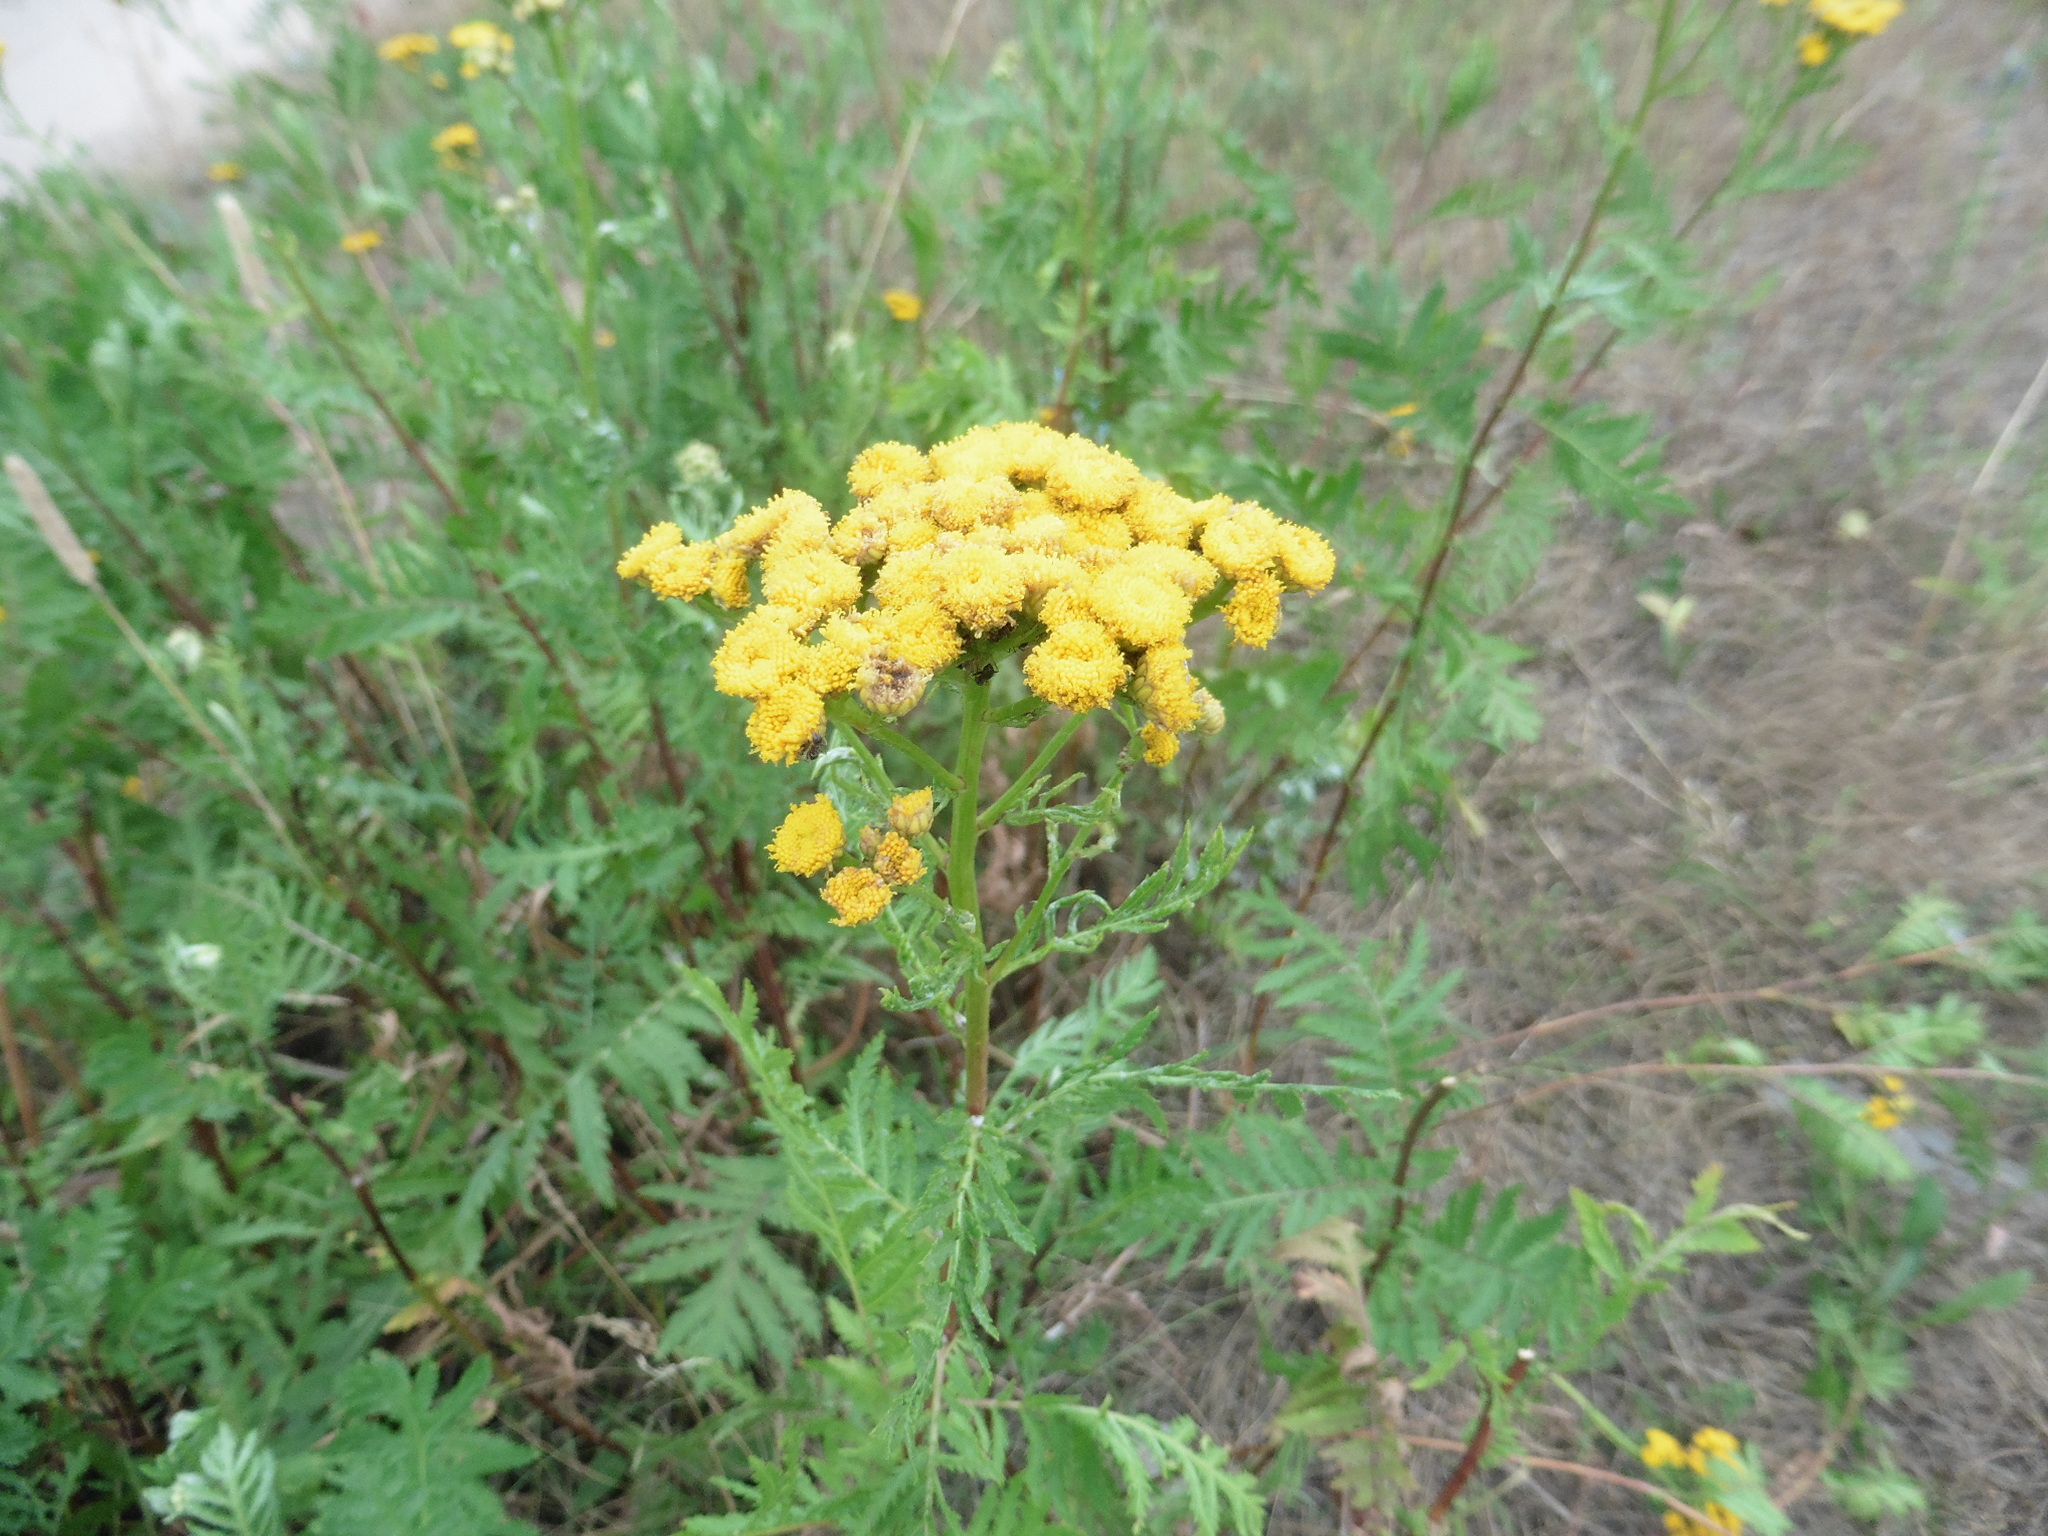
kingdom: Plantae
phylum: Tracheophyta
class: Magnoliopsida
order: Asterales
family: Asteraceae
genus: Tanacetum
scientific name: Tanacetum vulgare
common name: Common tansy
